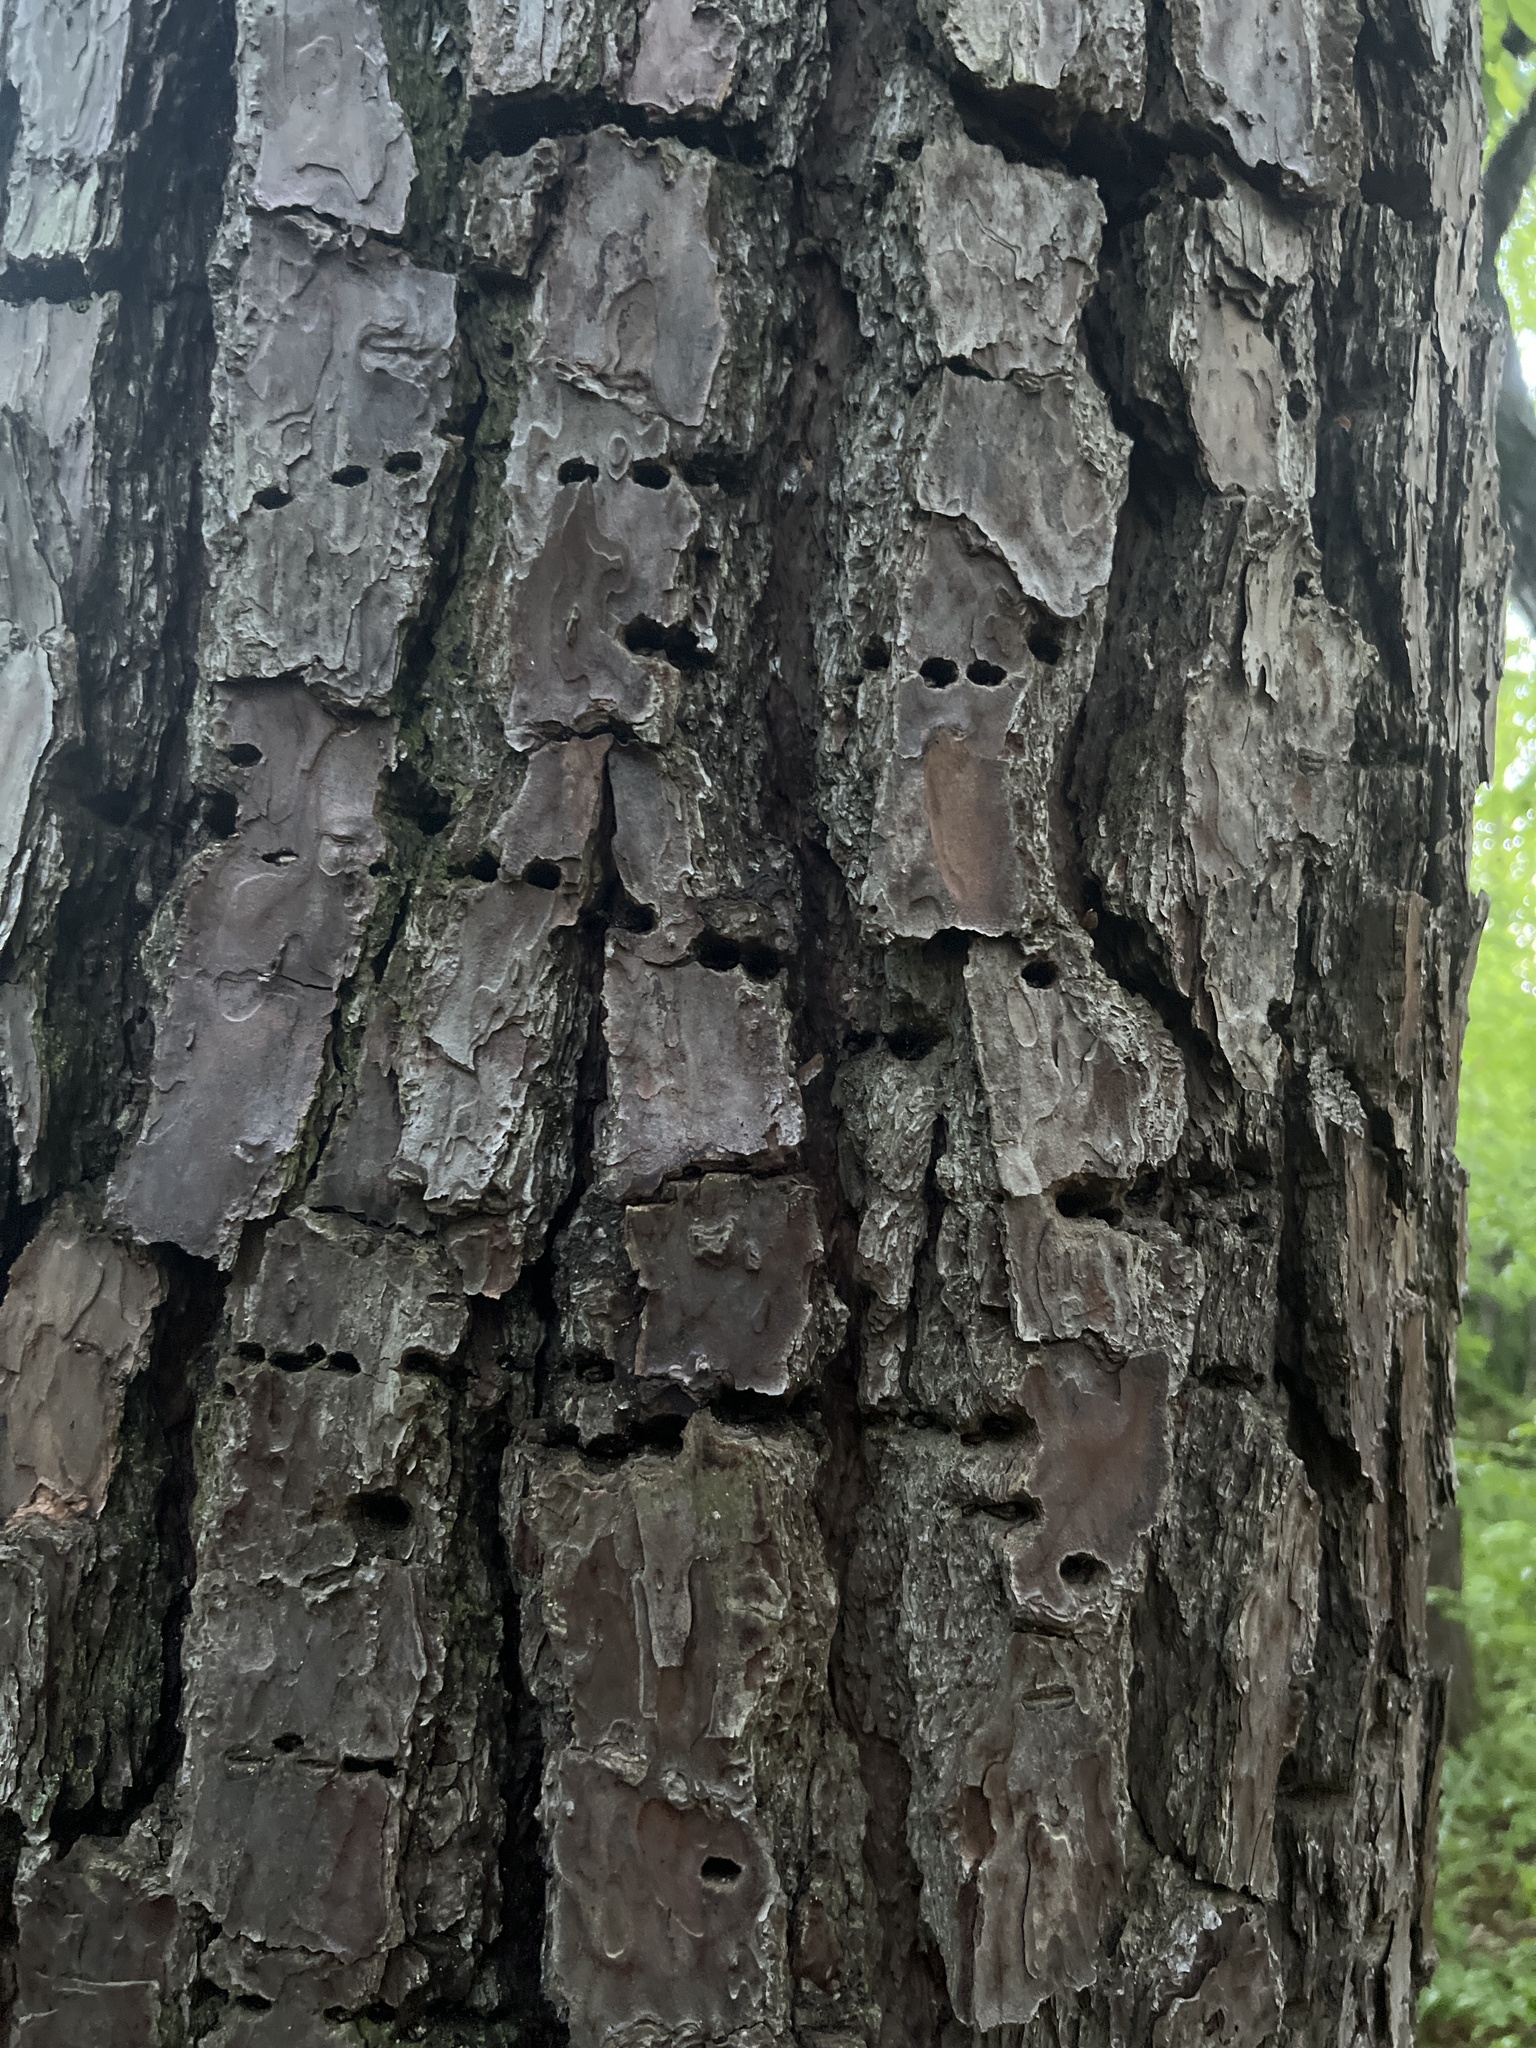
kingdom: Animalia
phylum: Chordata
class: Aves
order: Piciformes
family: Picidae
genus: Sphyrapicus
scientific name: Sphyrapicus varius
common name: Yellow-bellied sapsucker
